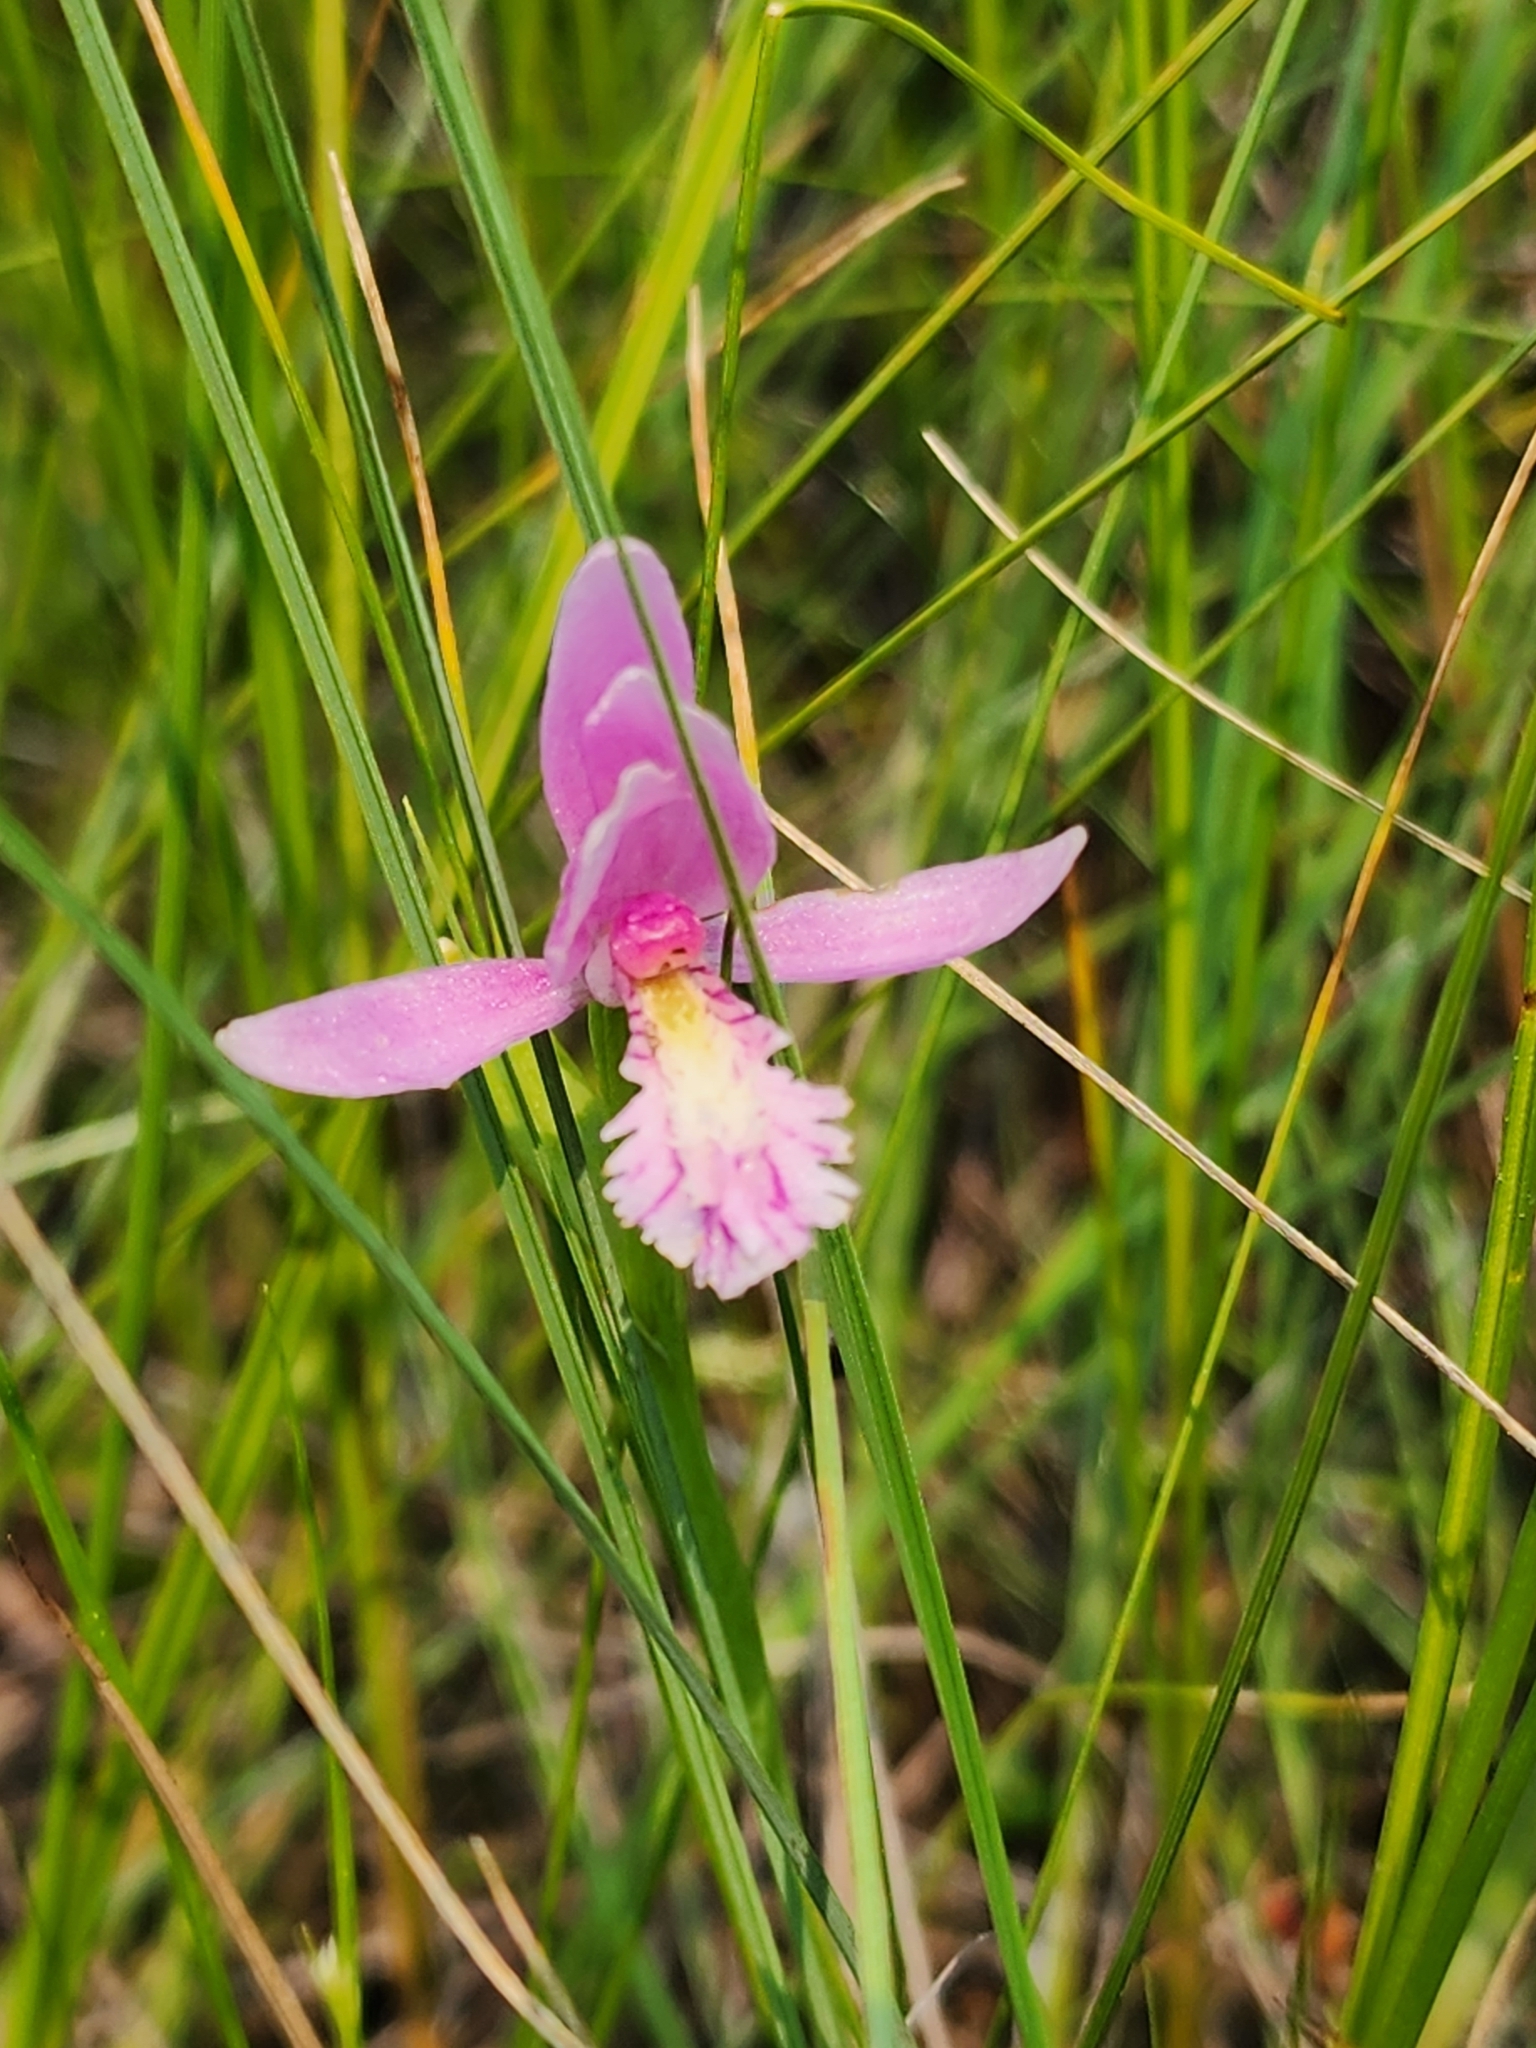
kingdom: Plantae
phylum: Tracheophyta
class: Liliopsida
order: Asparagales
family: Orchidaceae
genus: Pogonia
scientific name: Pogonia ophioglossoides
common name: Rose pogonia
